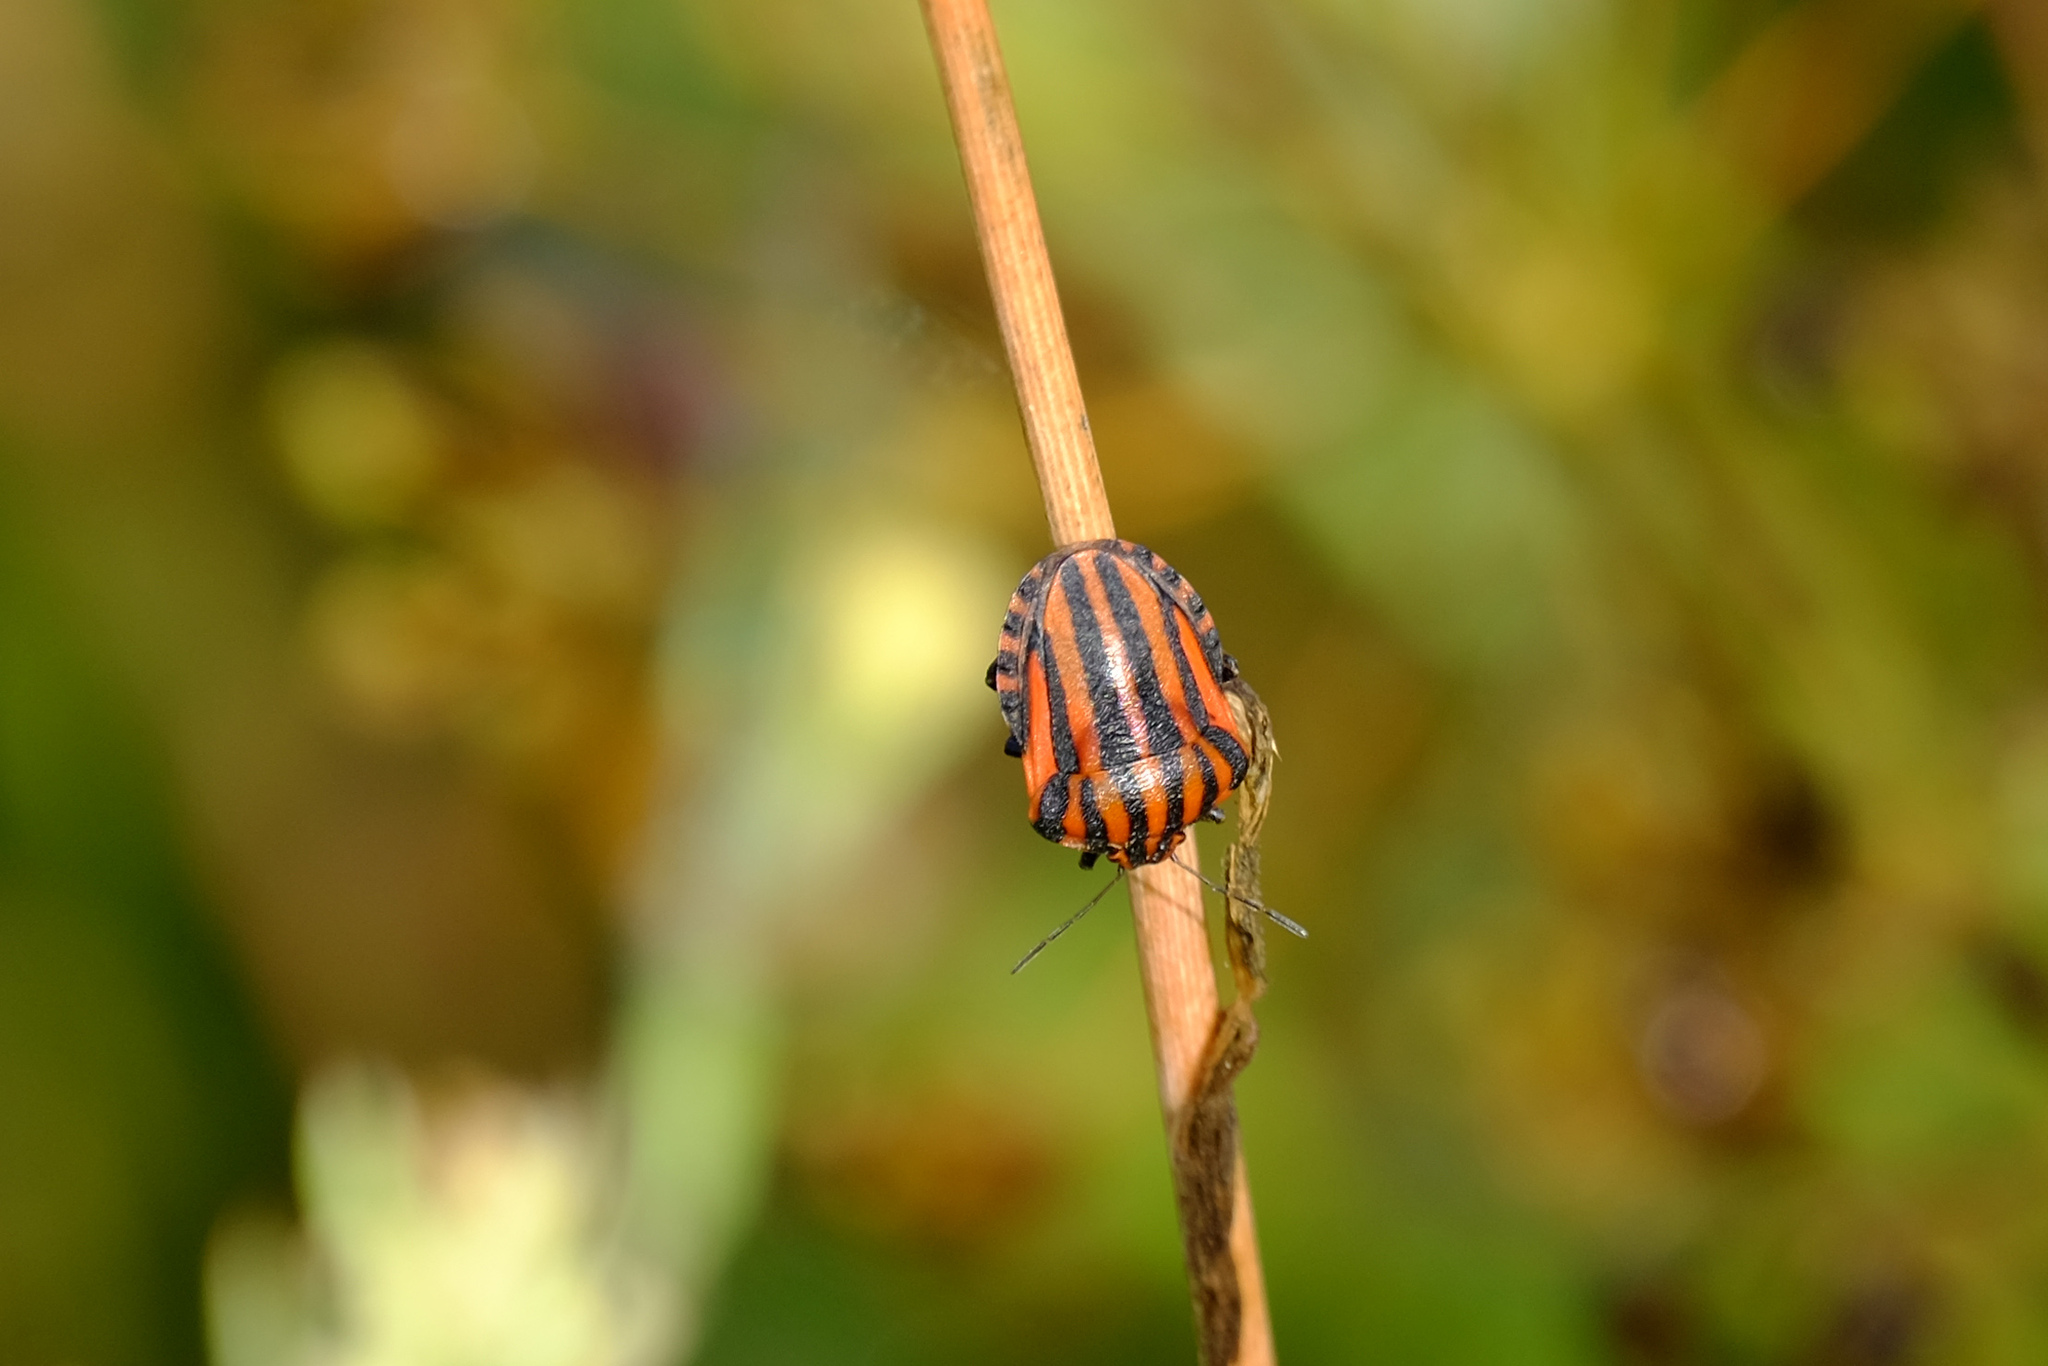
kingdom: Animalia
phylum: Arthropoda
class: Insecta
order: Hemiptera
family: Pentatomidae
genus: Graphosoma
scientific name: Graphosoma italicum
